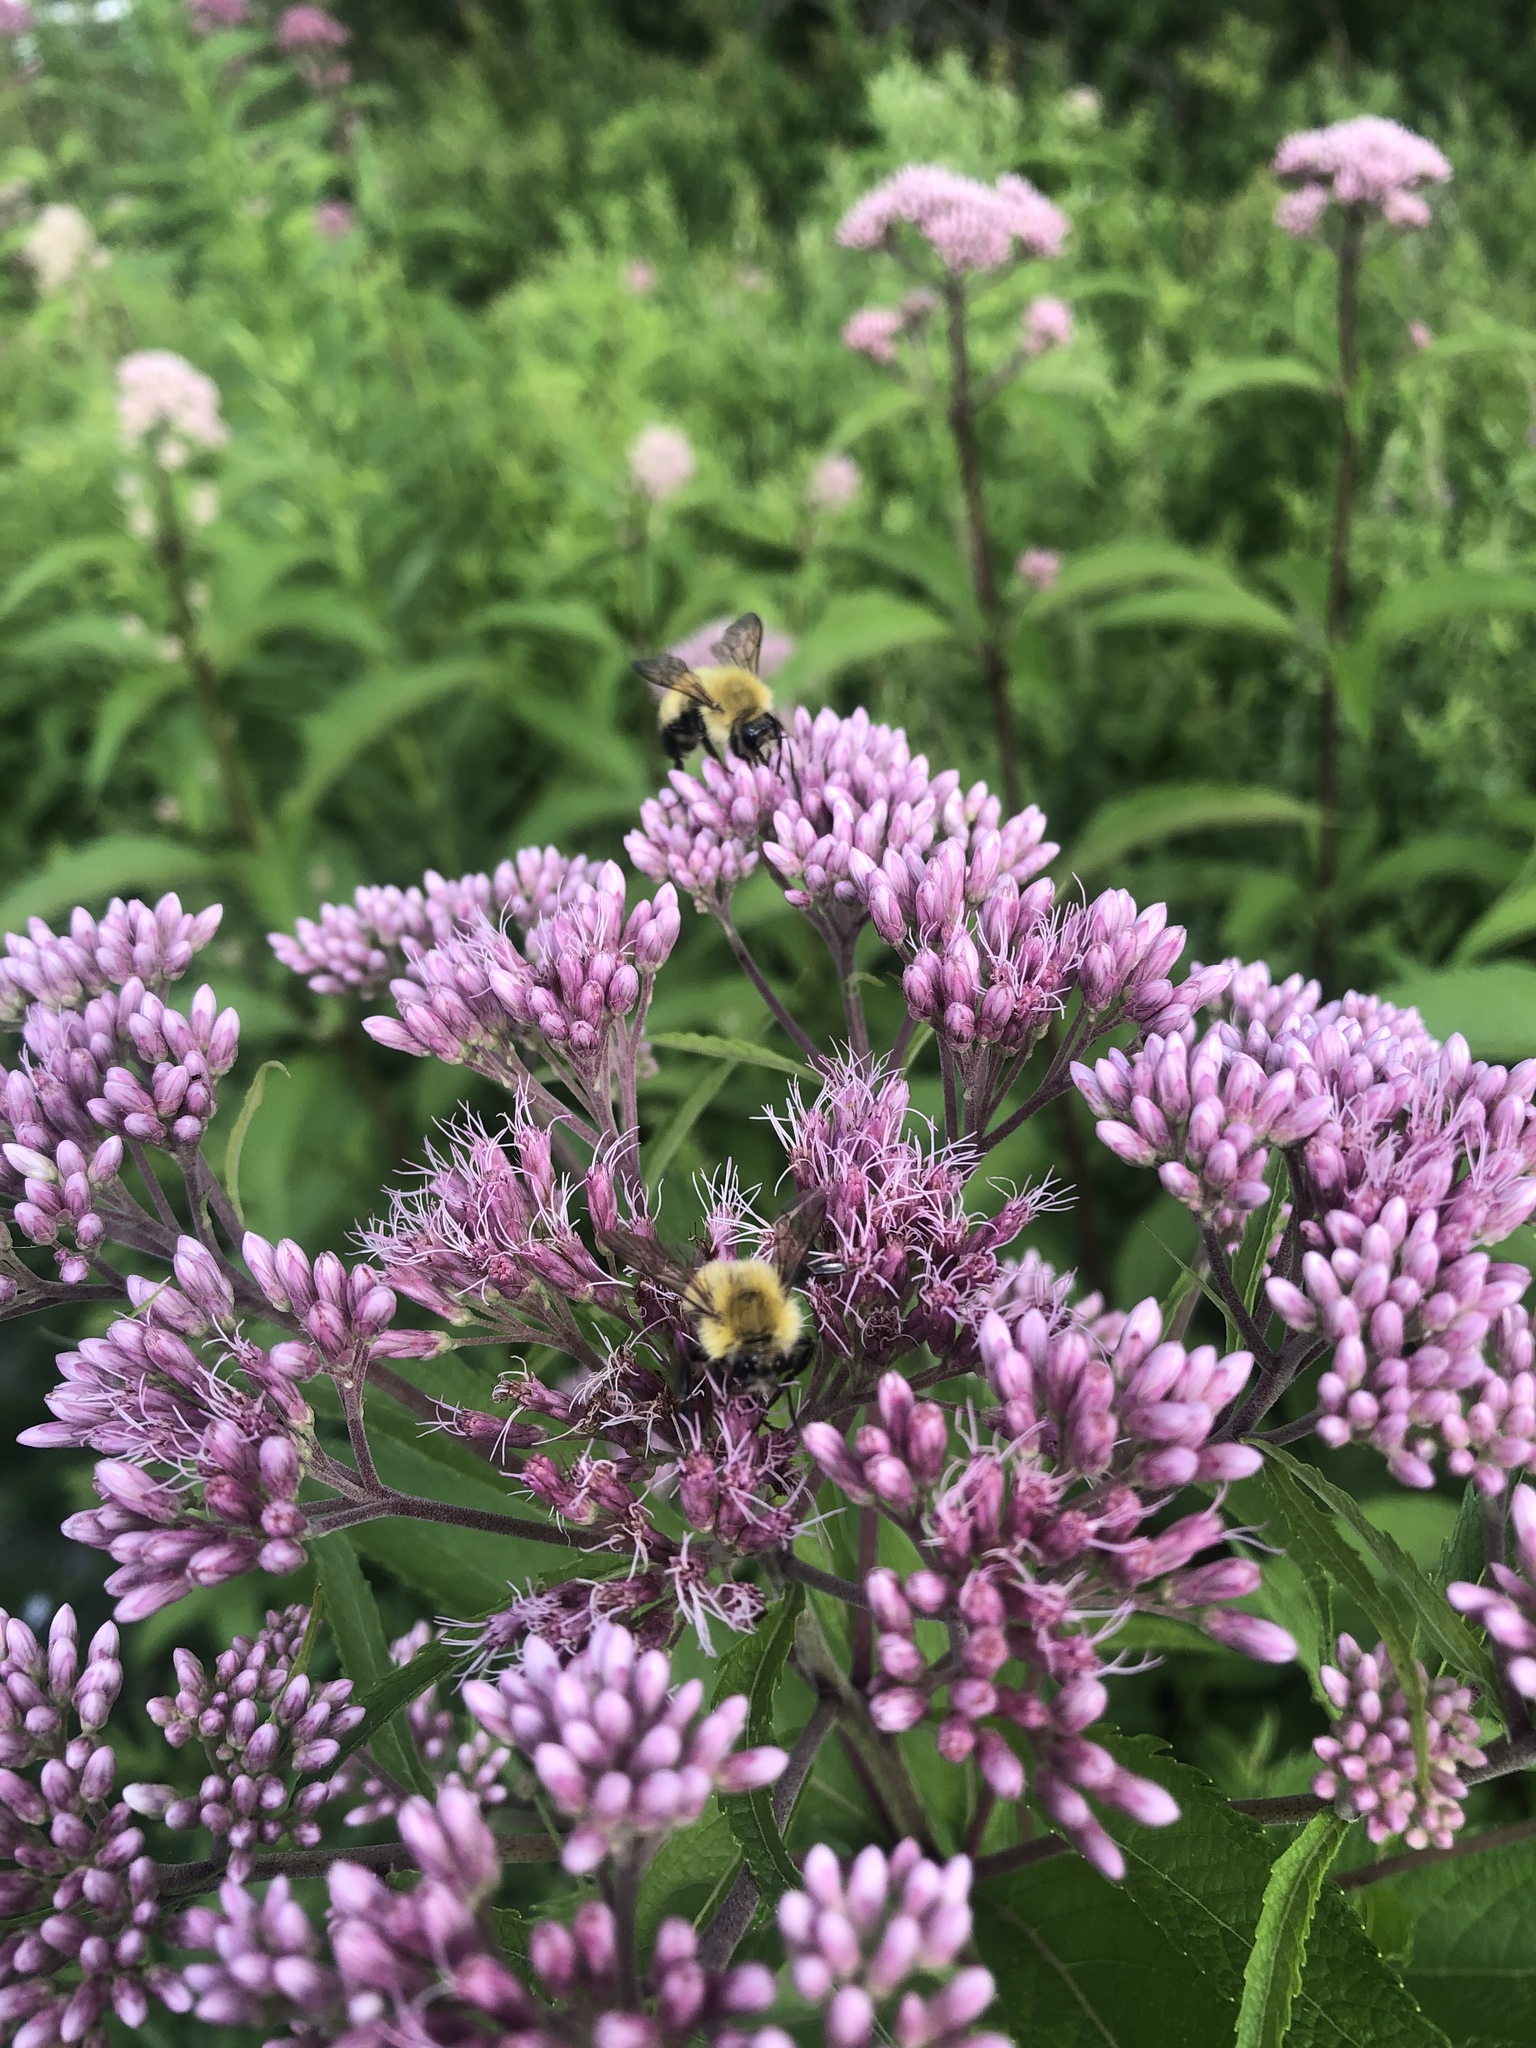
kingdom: Animalia
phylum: Arthropoda
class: Insecta
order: Hymenoptera
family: Apidae
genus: Bombus
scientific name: Bombus perplexus
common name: Confusing bumble bee
